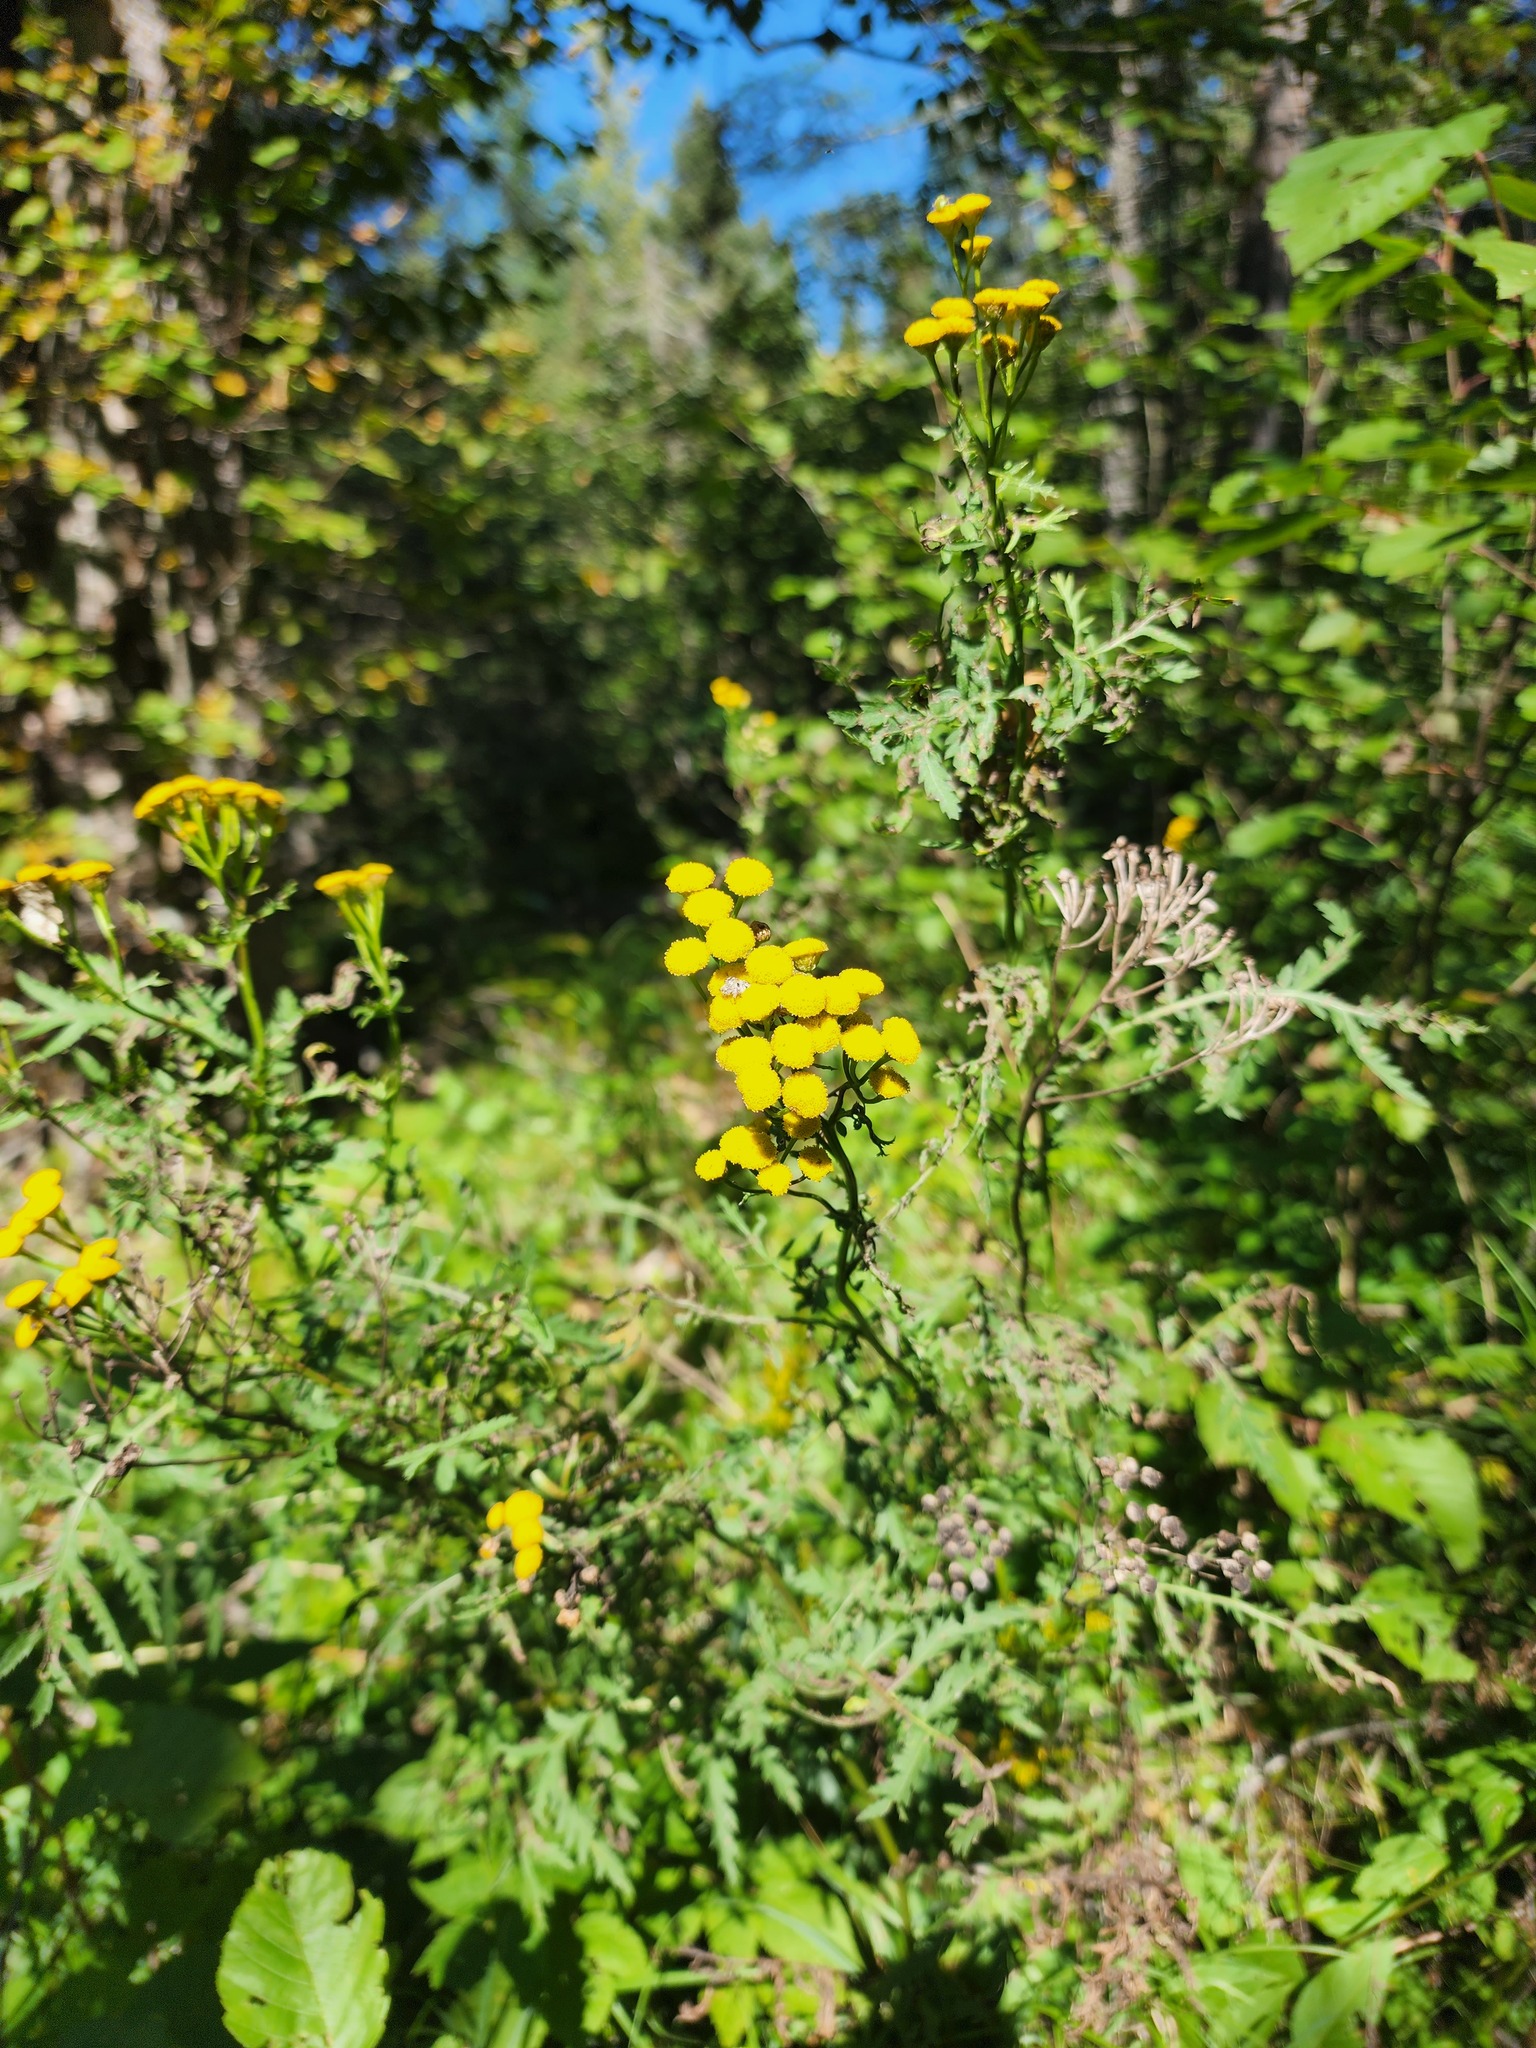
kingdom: Plantae
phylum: Tracheophyta
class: Magnoliopsida
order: Asterales
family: Asteraceae
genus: Tanacetum
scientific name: Tanacetum vulgare
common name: Common tansy
